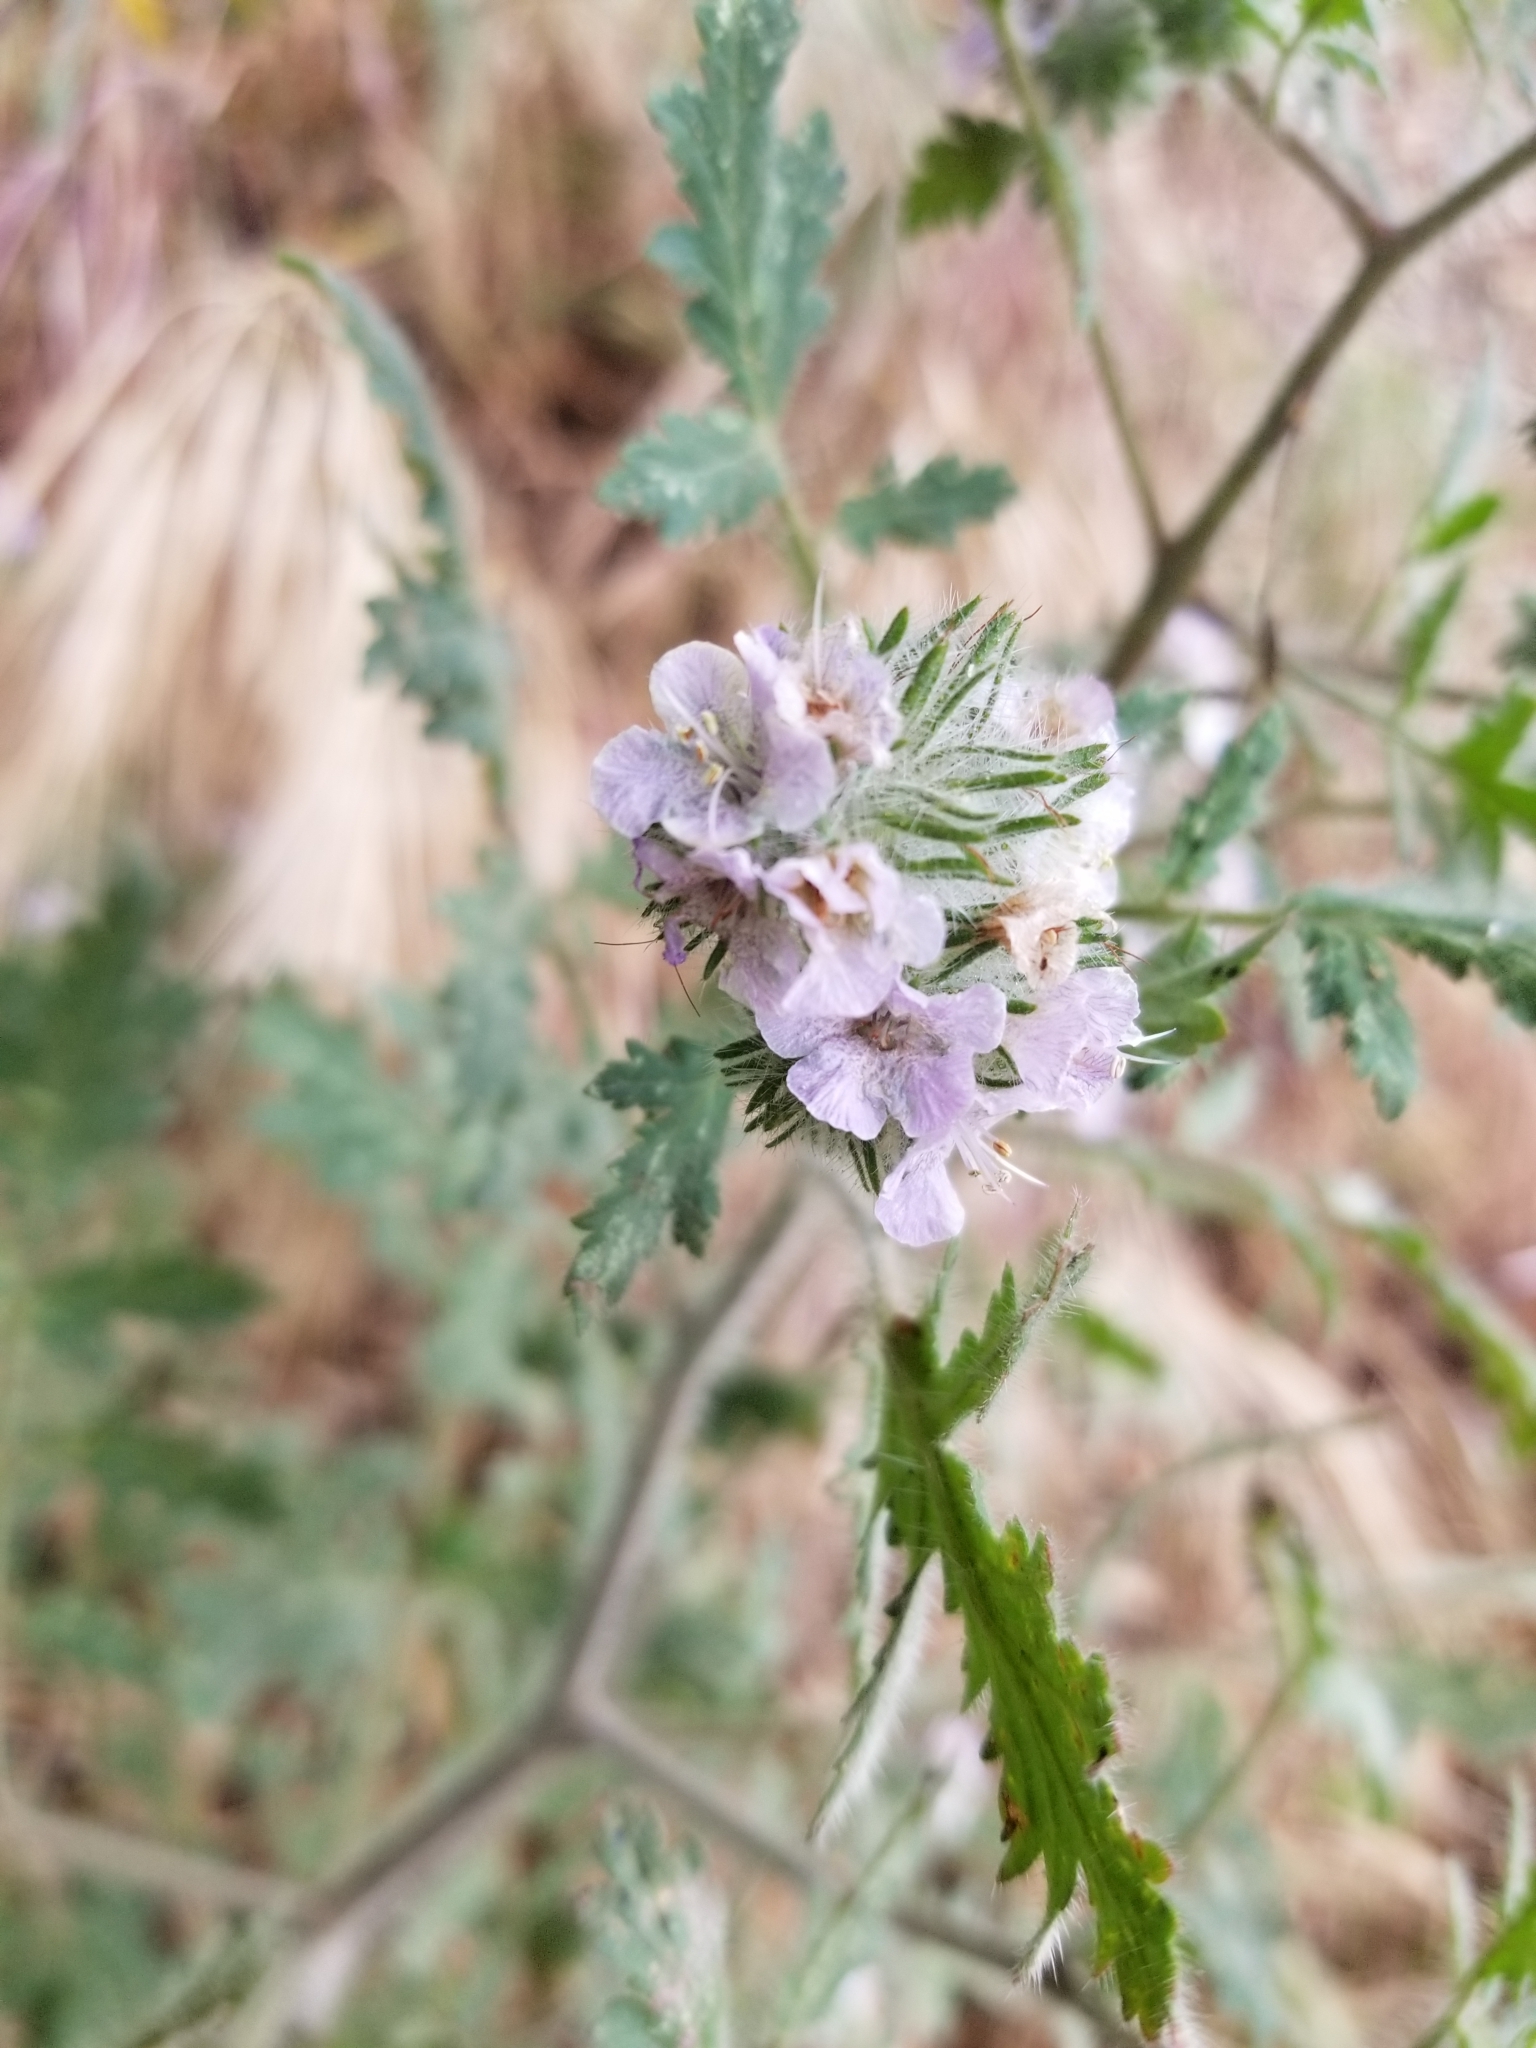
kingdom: Plantae
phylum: Tracheophyta
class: Magnoliopsida
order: Boraginales
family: Hydrophyllaceae
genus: Phacelia
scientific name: Phacelia cicutaria
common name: Caterpillar phacelia
